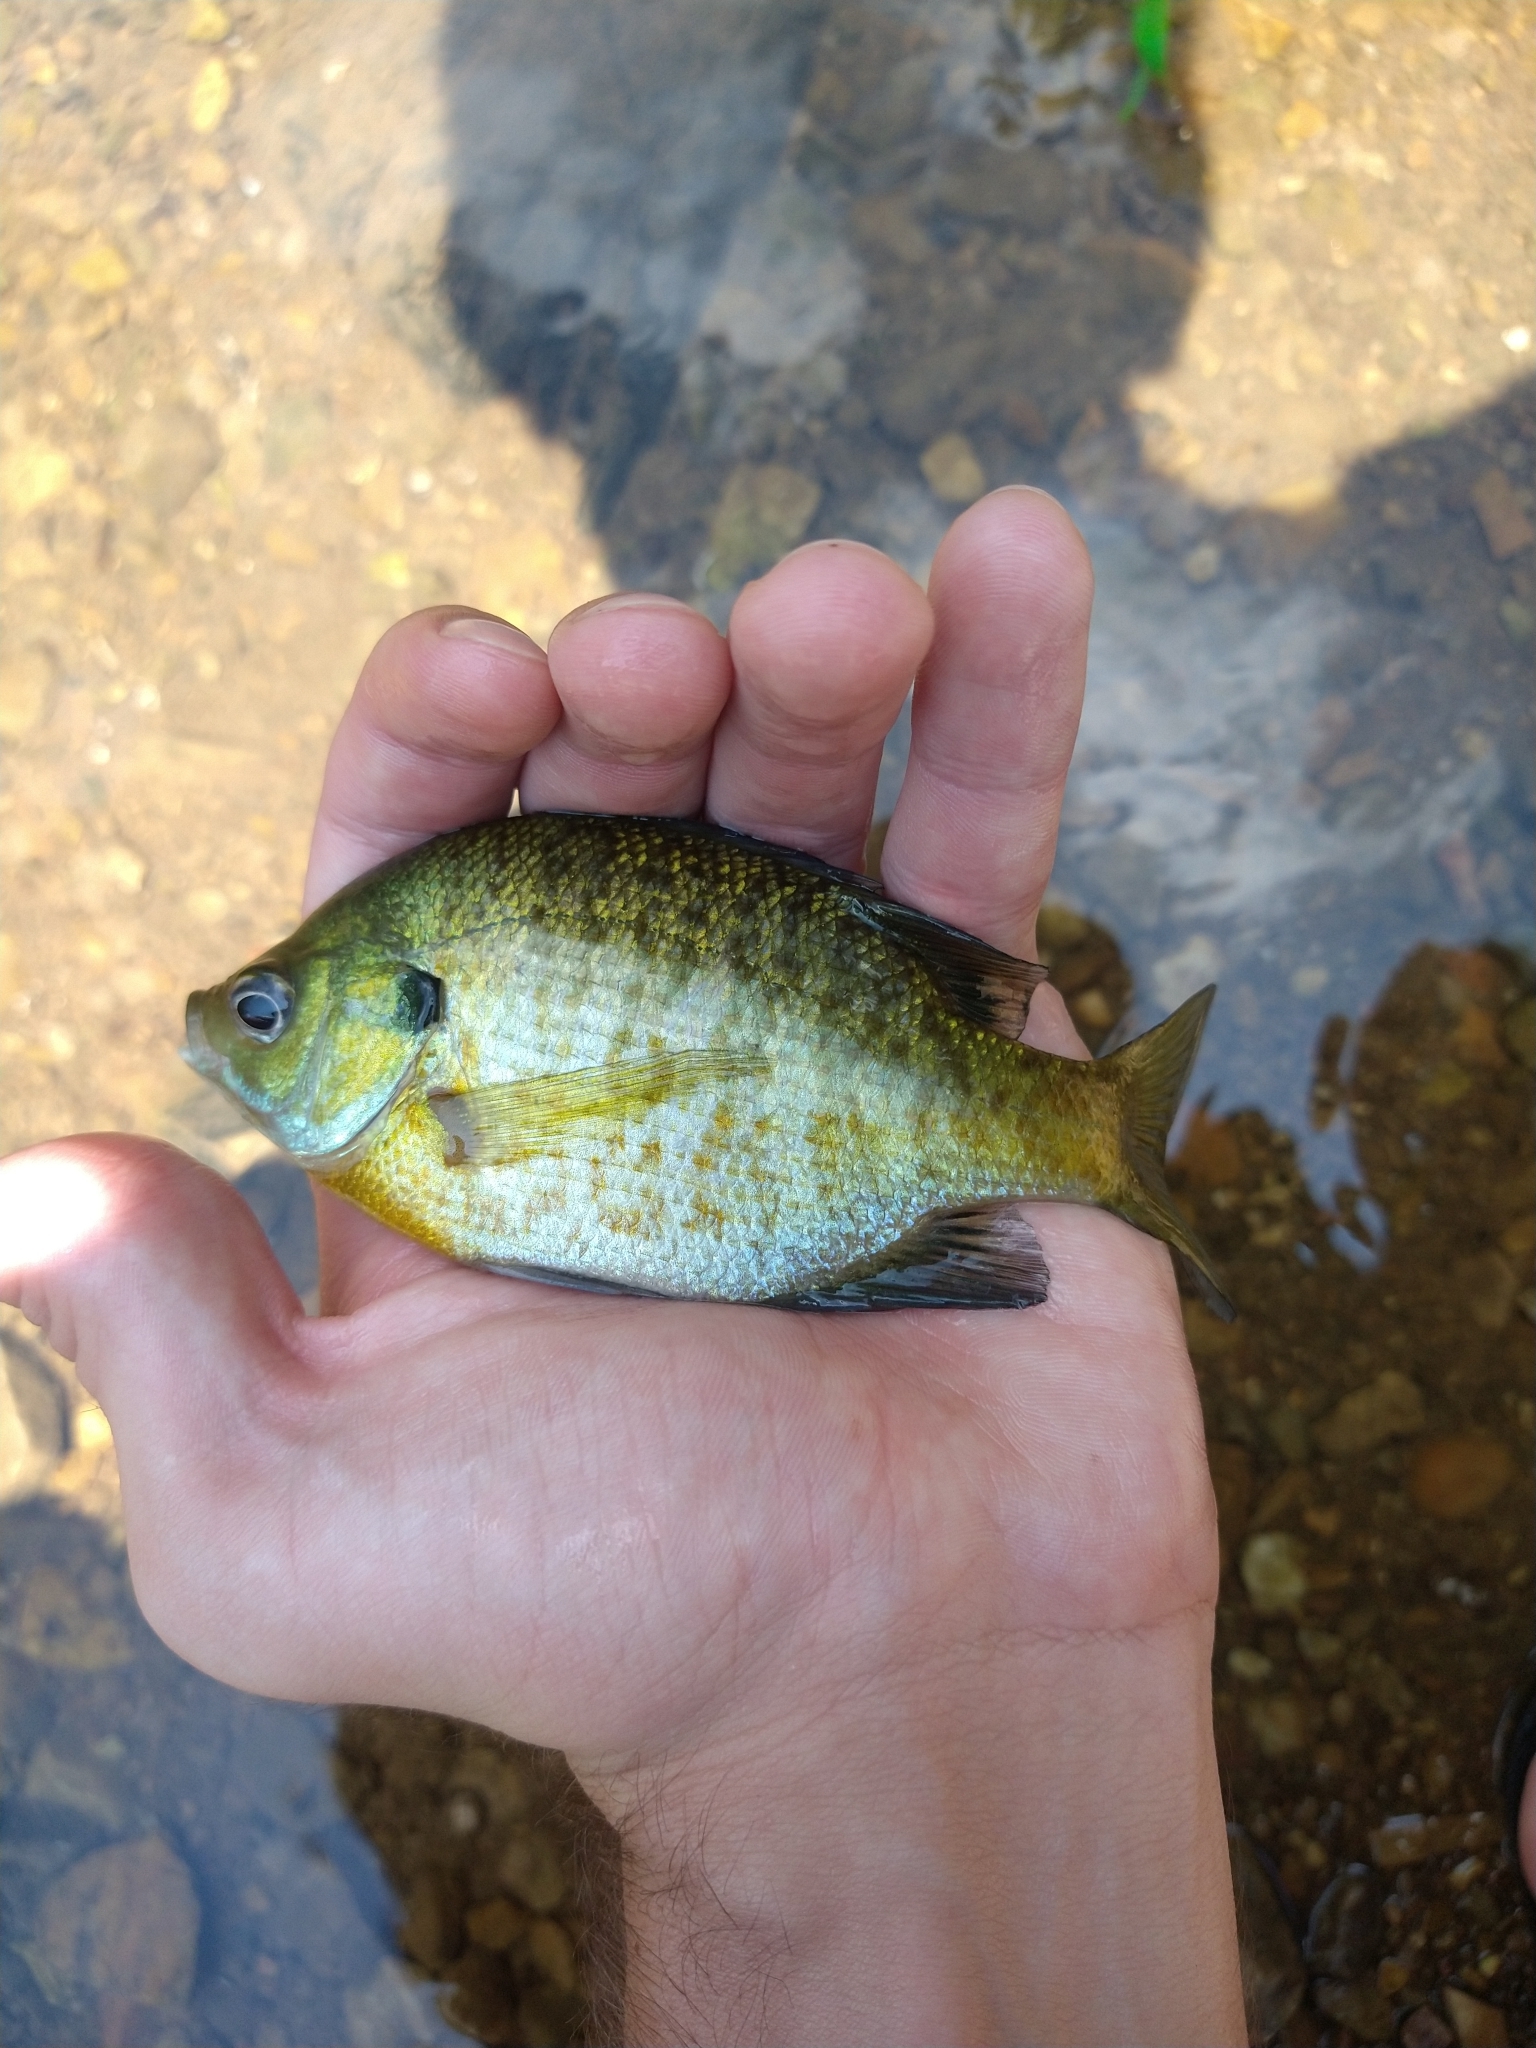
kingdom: Animalia
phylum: Chordata
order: Perciformes
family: Centrarchidae
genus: Lepomis
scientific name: Lepomis macrochirus
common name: Bluegill
